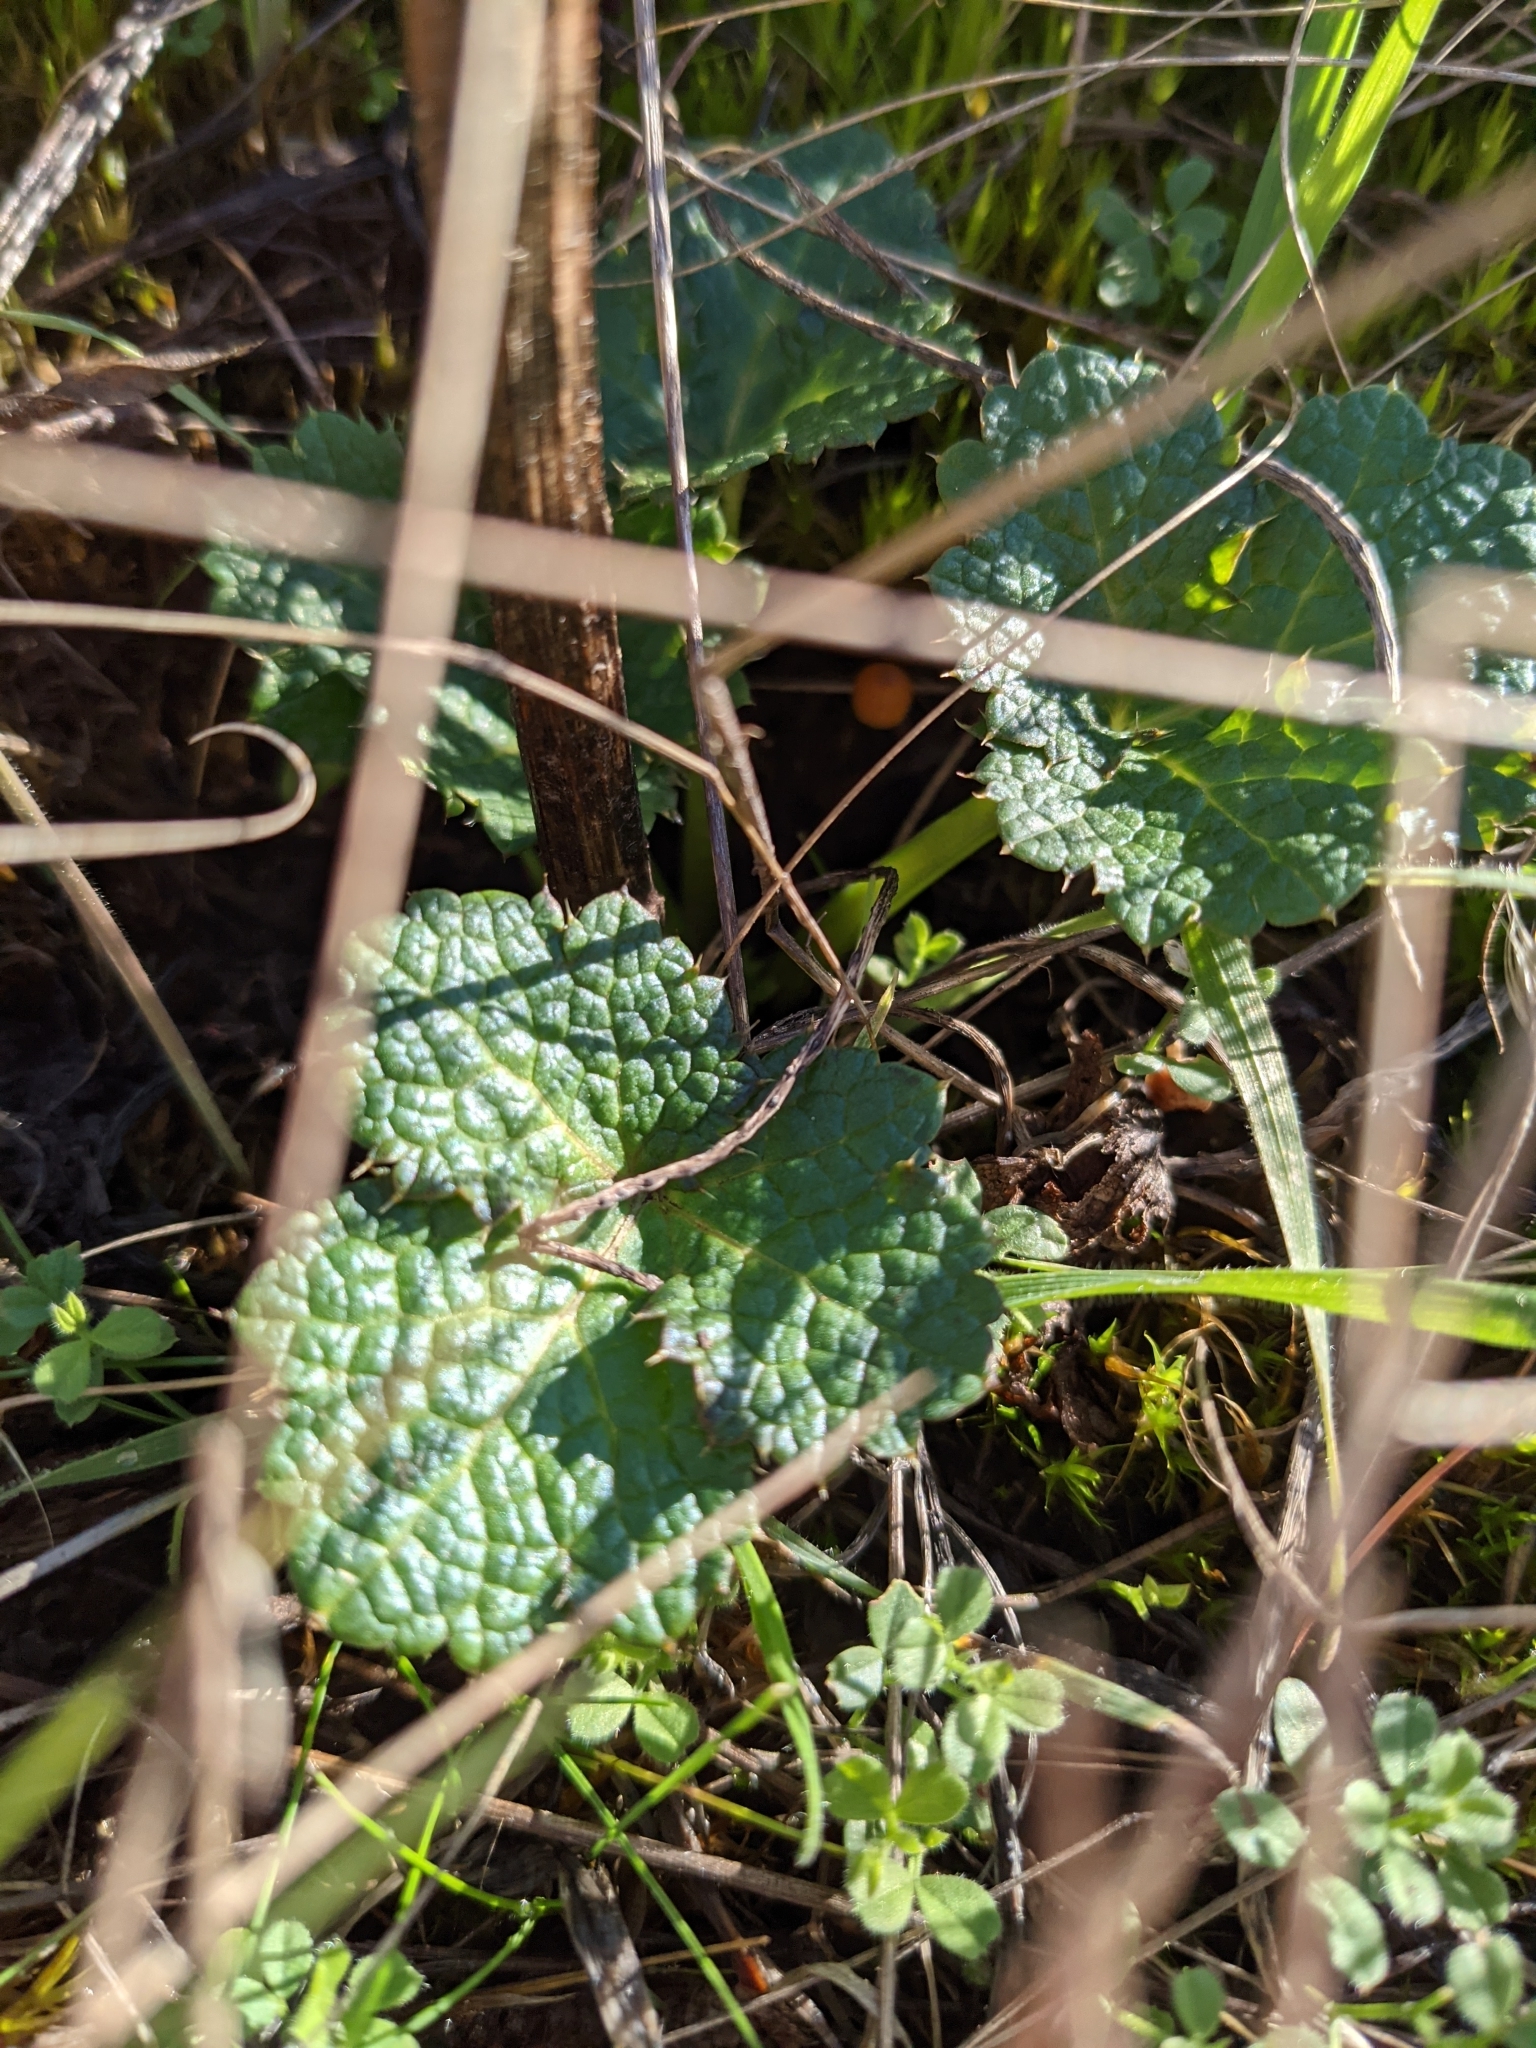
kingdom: Plantae
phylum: Tracheophyta
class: Magnoliopsida
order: Apiales
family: Apiaceae
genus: Sanicula
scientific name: Sanicula crassicaulis
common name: Western snakeroot
